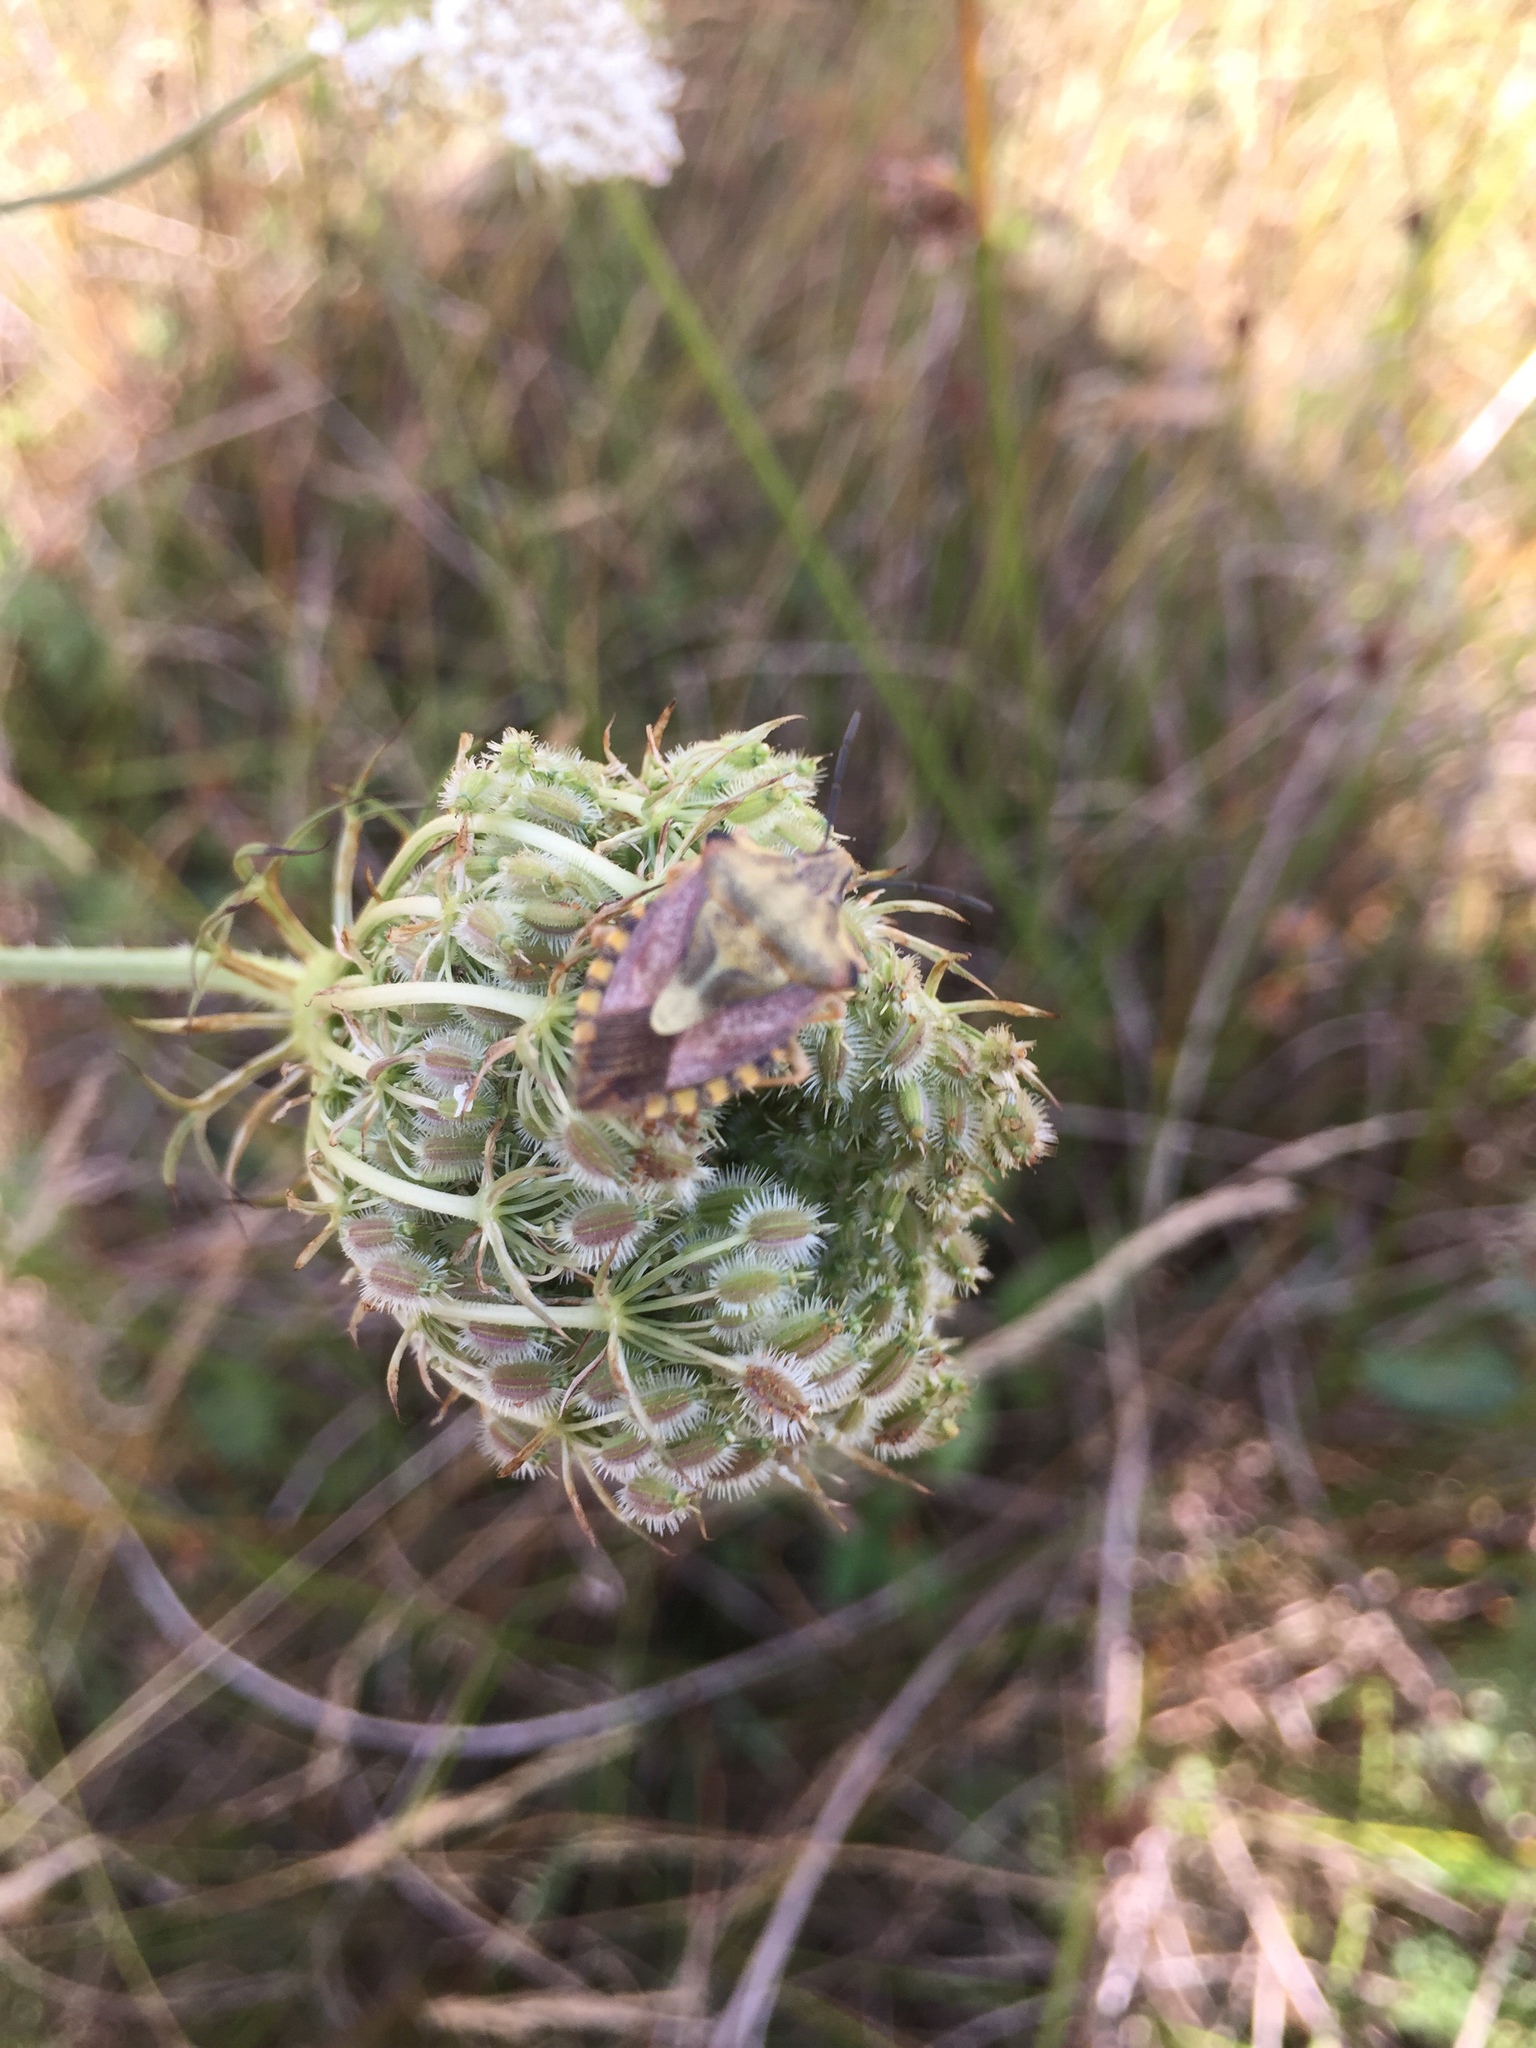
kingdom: Animalia
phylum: Arthropoda
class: Insecta
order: Hemiptera
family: Pentatomidae
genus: Carpocoris
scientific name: Carpocoris purpureipennis
